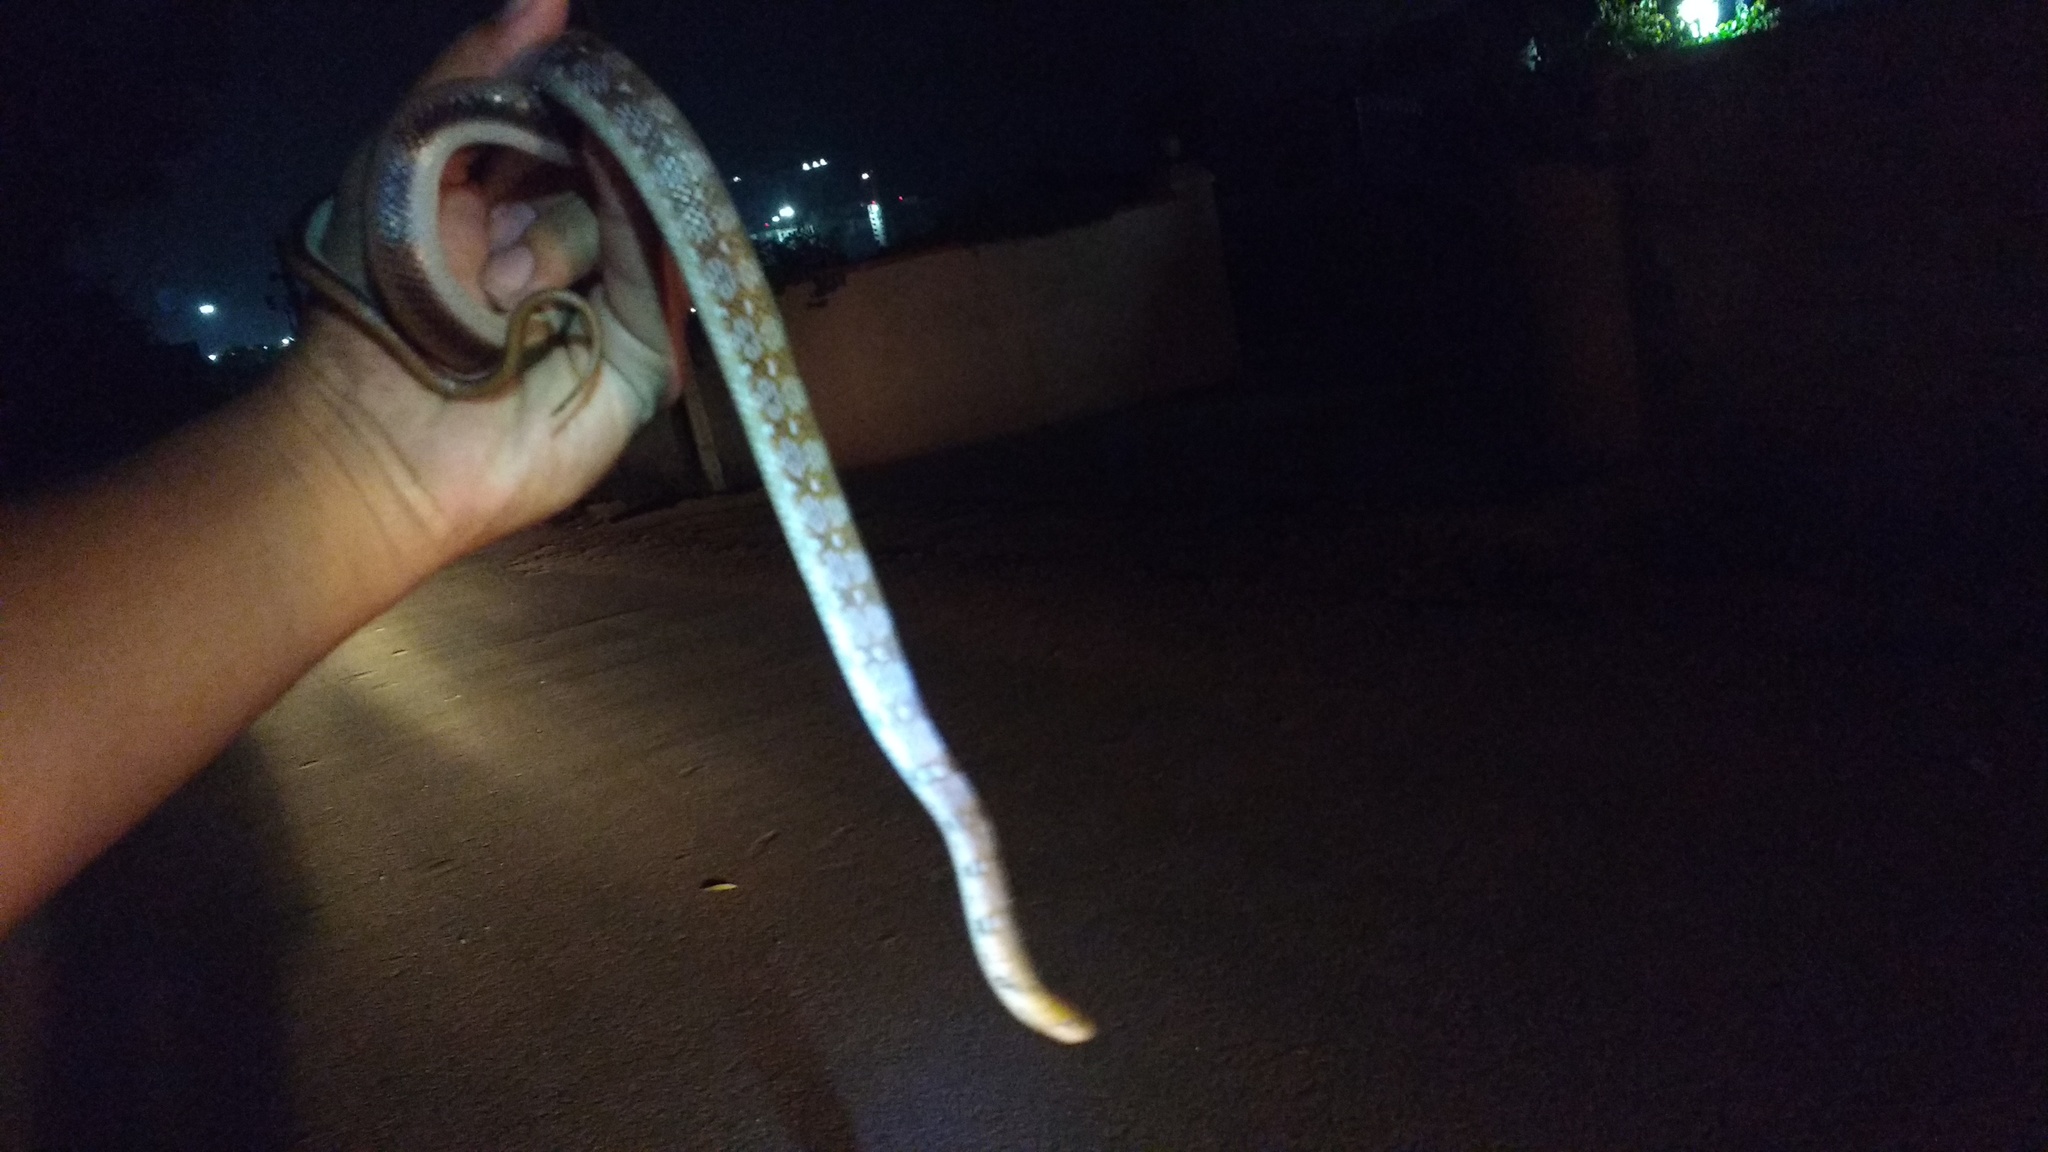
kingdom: Animalia
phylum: Chordata
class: Squamata
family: Colubridae
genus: Coelognathus
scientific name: Coelognathus helena
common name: Trinket snake
